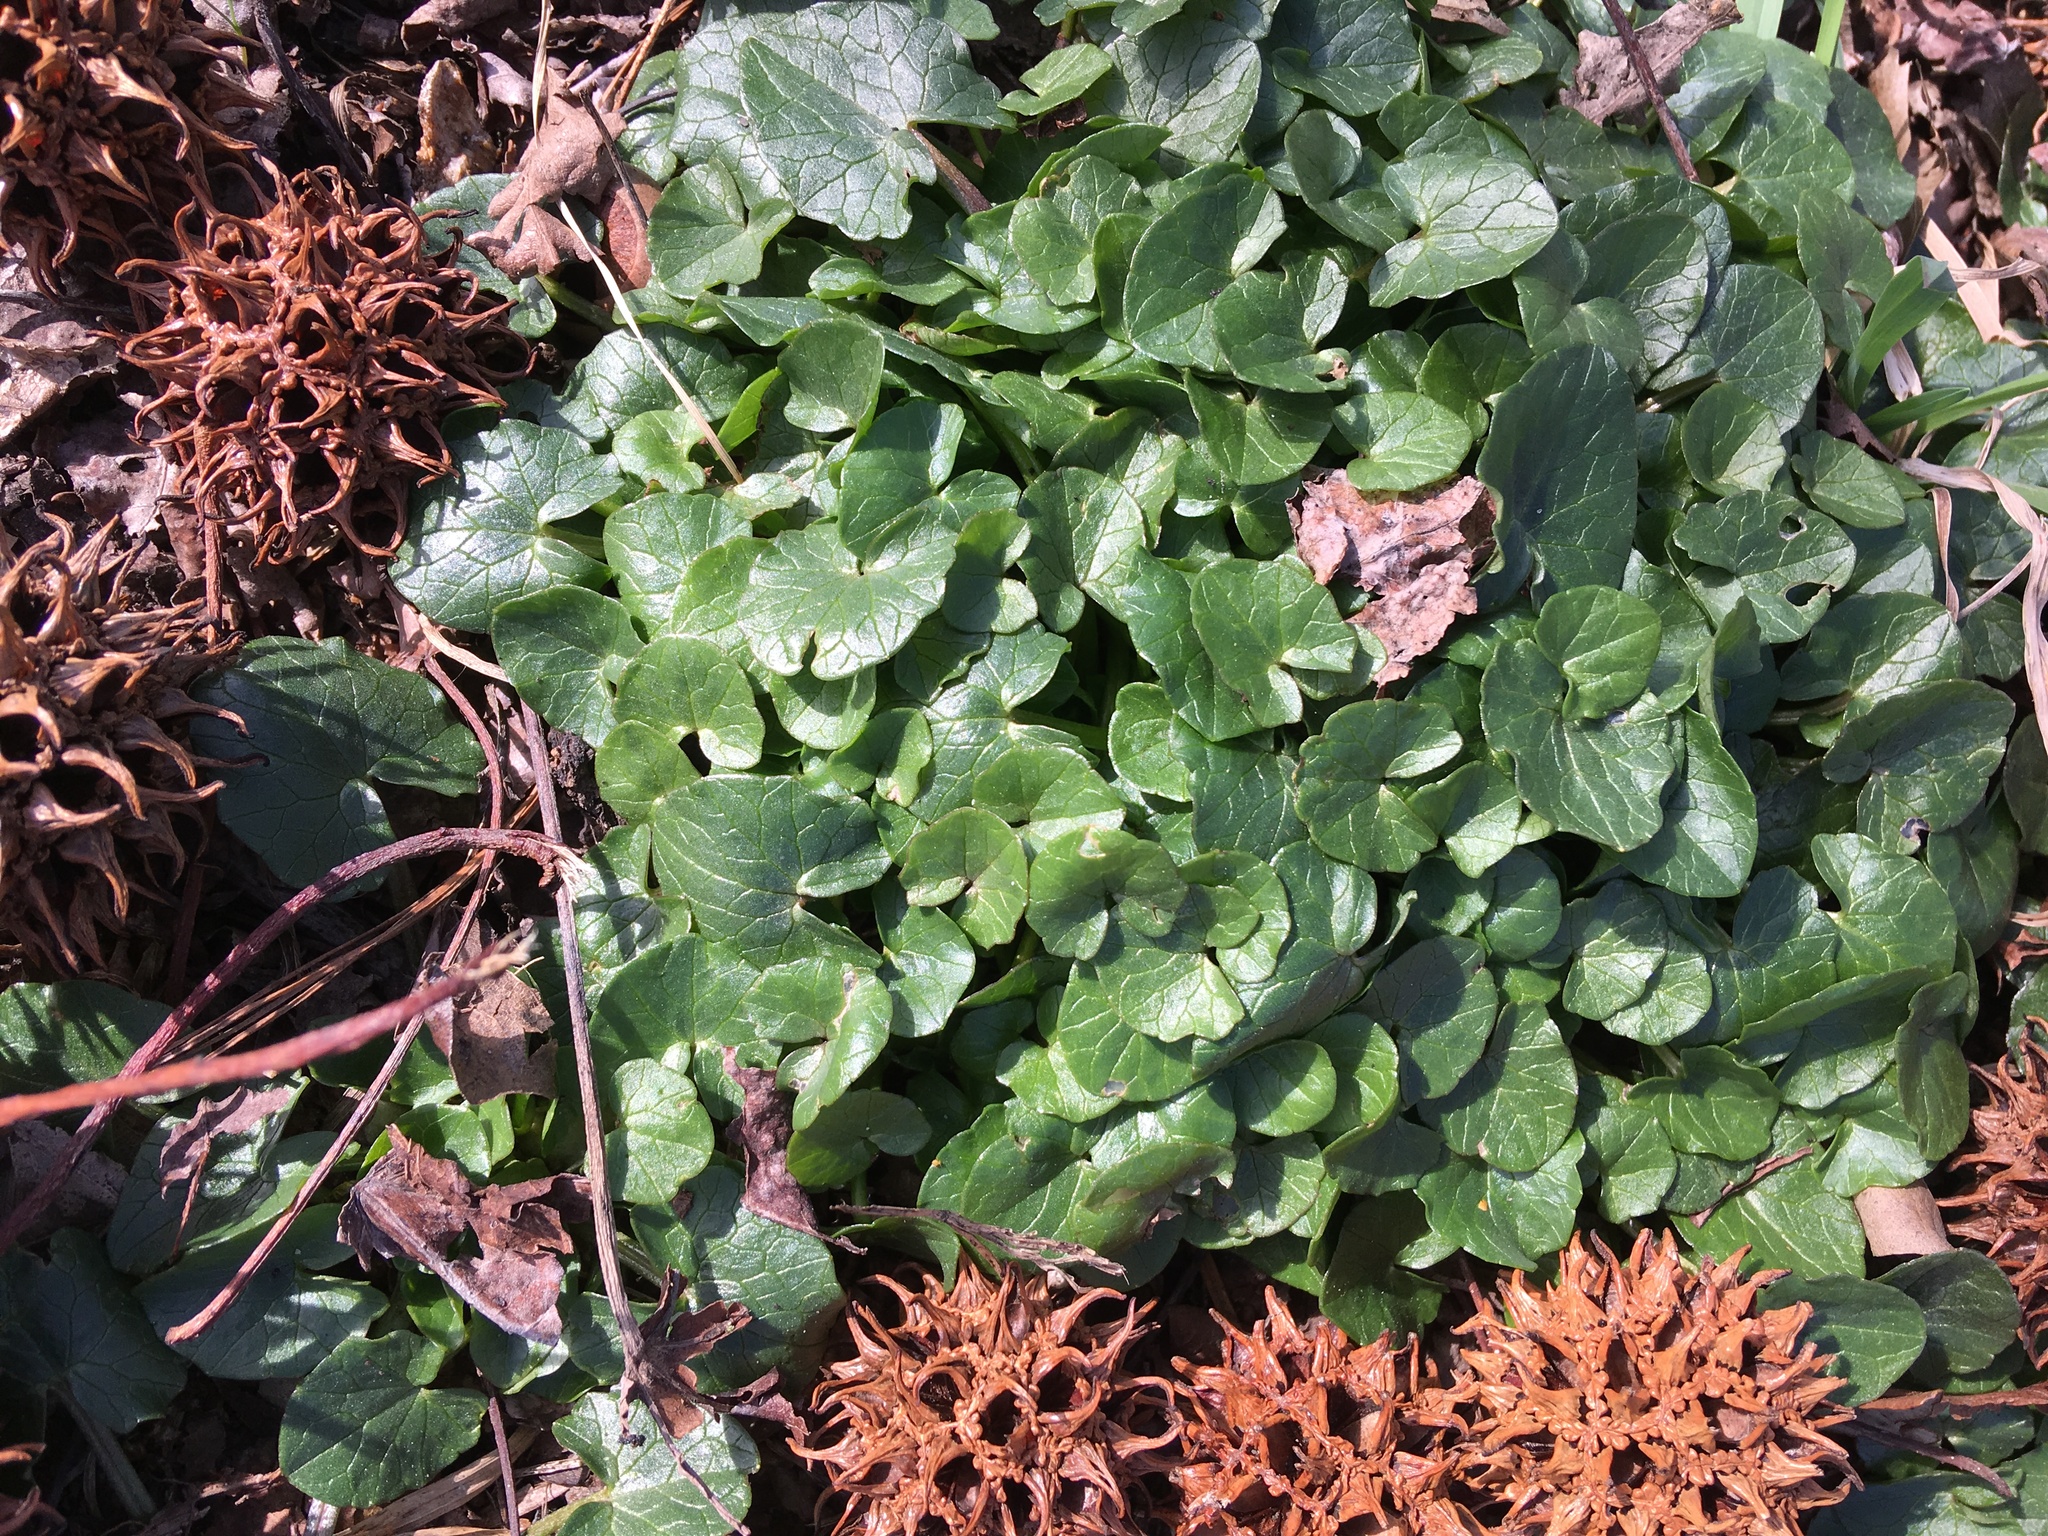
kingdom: Plantae
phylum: Tracheophyta
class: Magnoliopsida
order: Ranunculales
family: Ranunculaceae
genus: Ficaria
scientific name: Ficaria verna
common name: Lesser celandine
